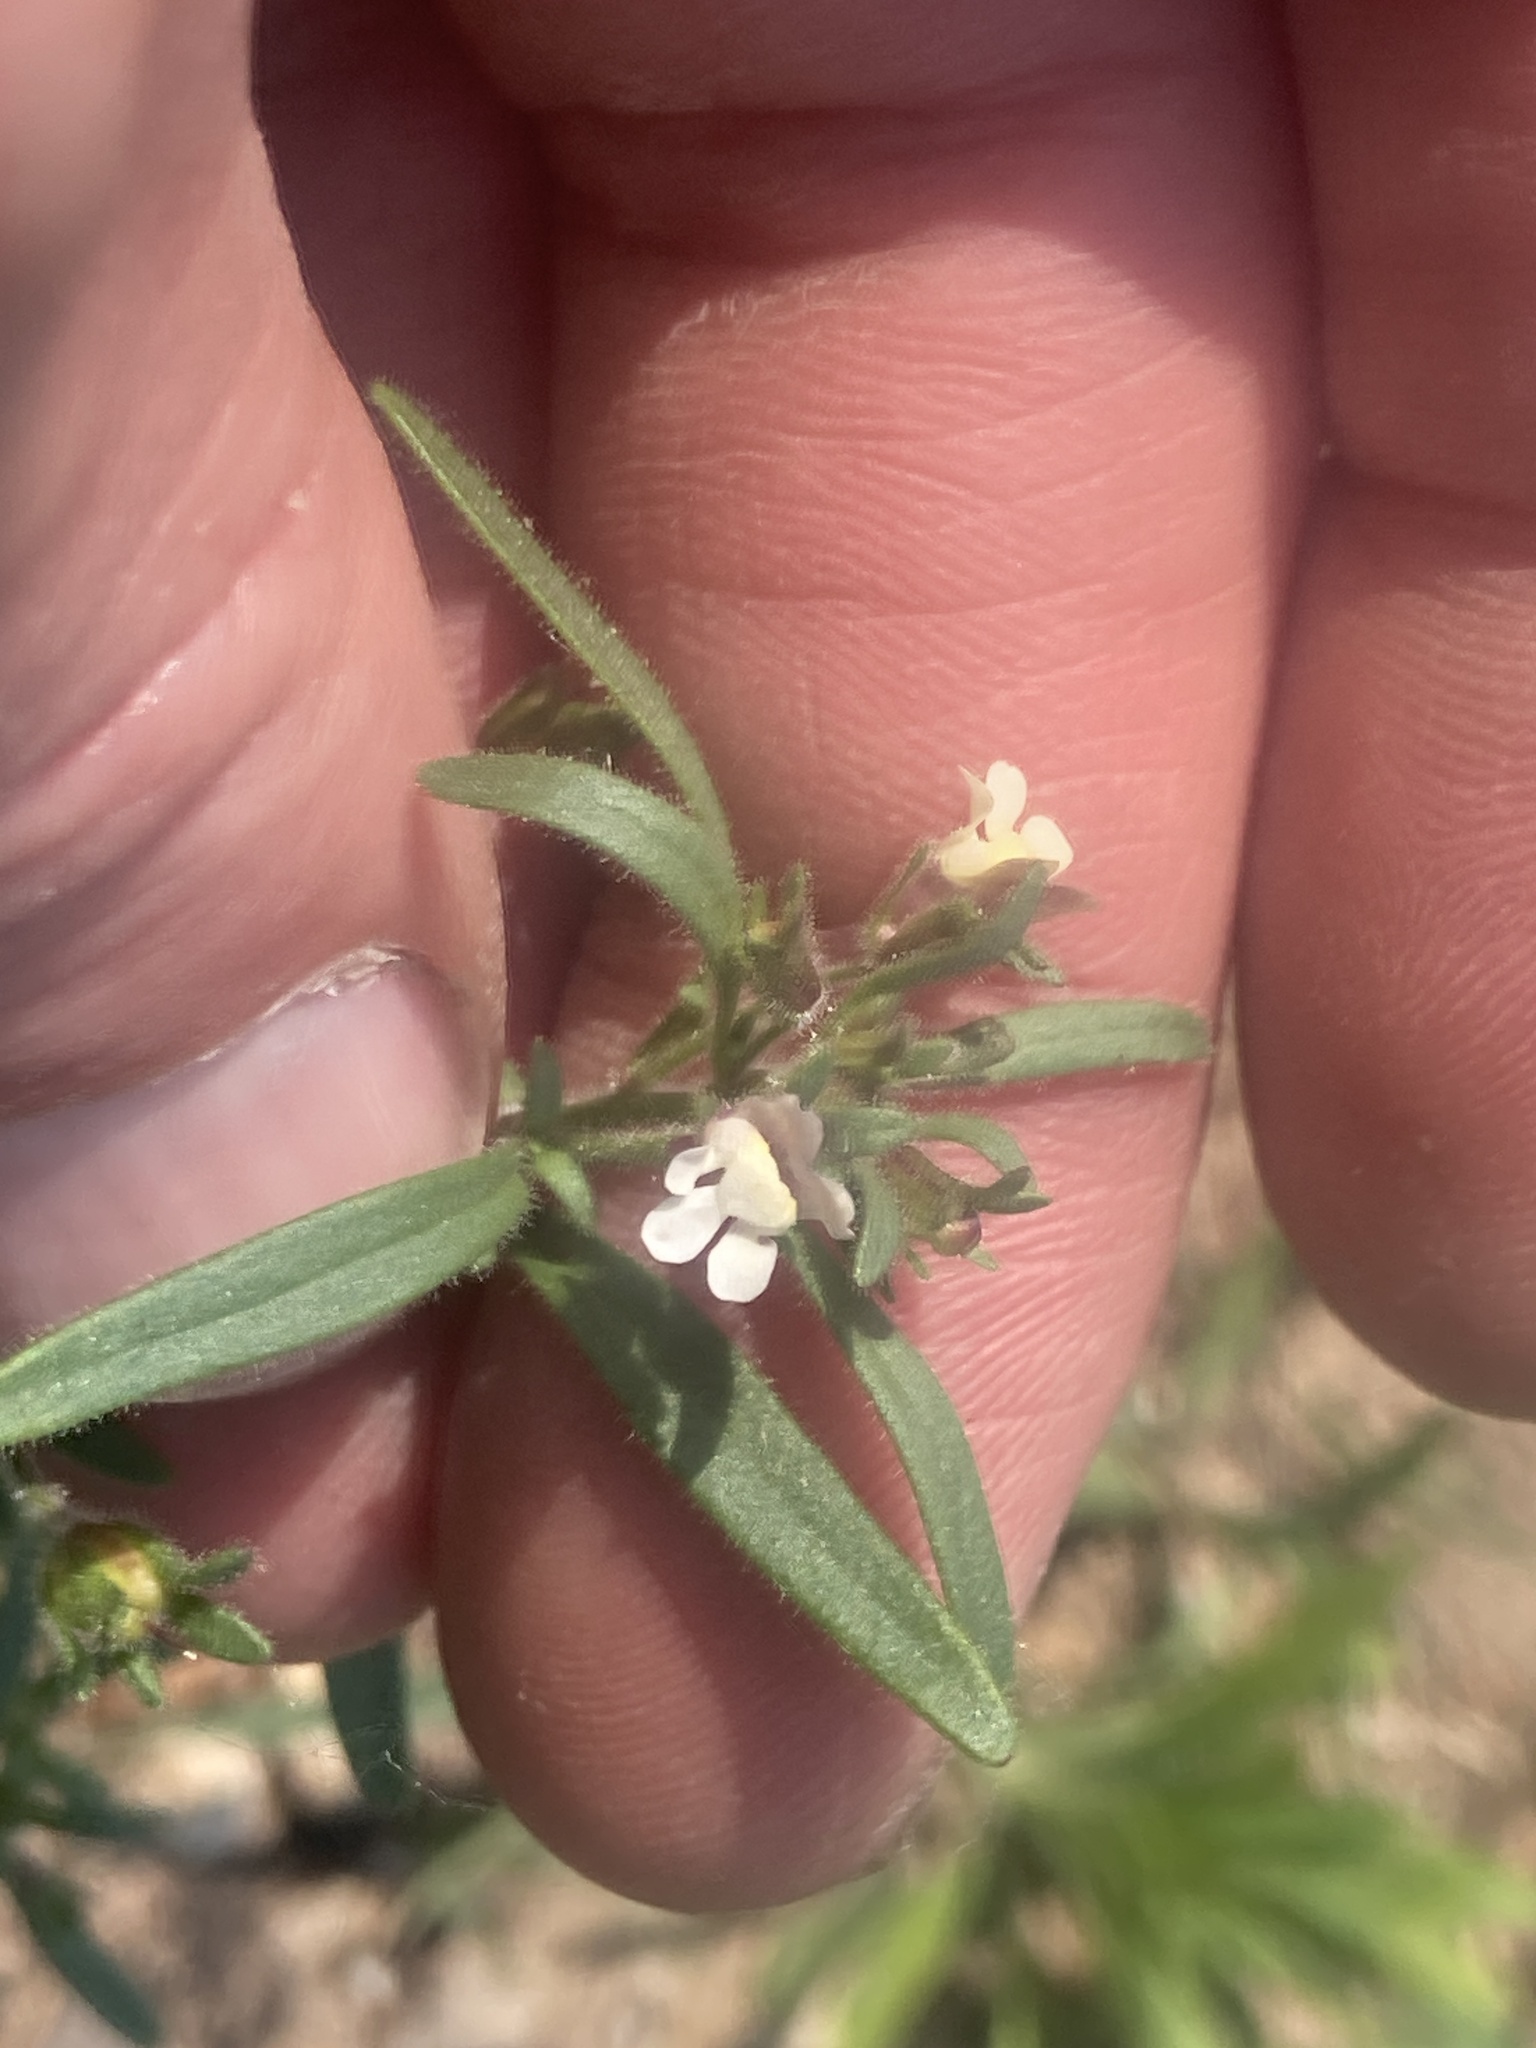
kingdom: Plantae
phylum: Tracheophyta
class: Magnoliopsida
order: Lamiales
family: Plantaginaceae
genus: Chaenorhinum
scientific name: Chaenorhinum minus
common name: Dwarf snapdragon
